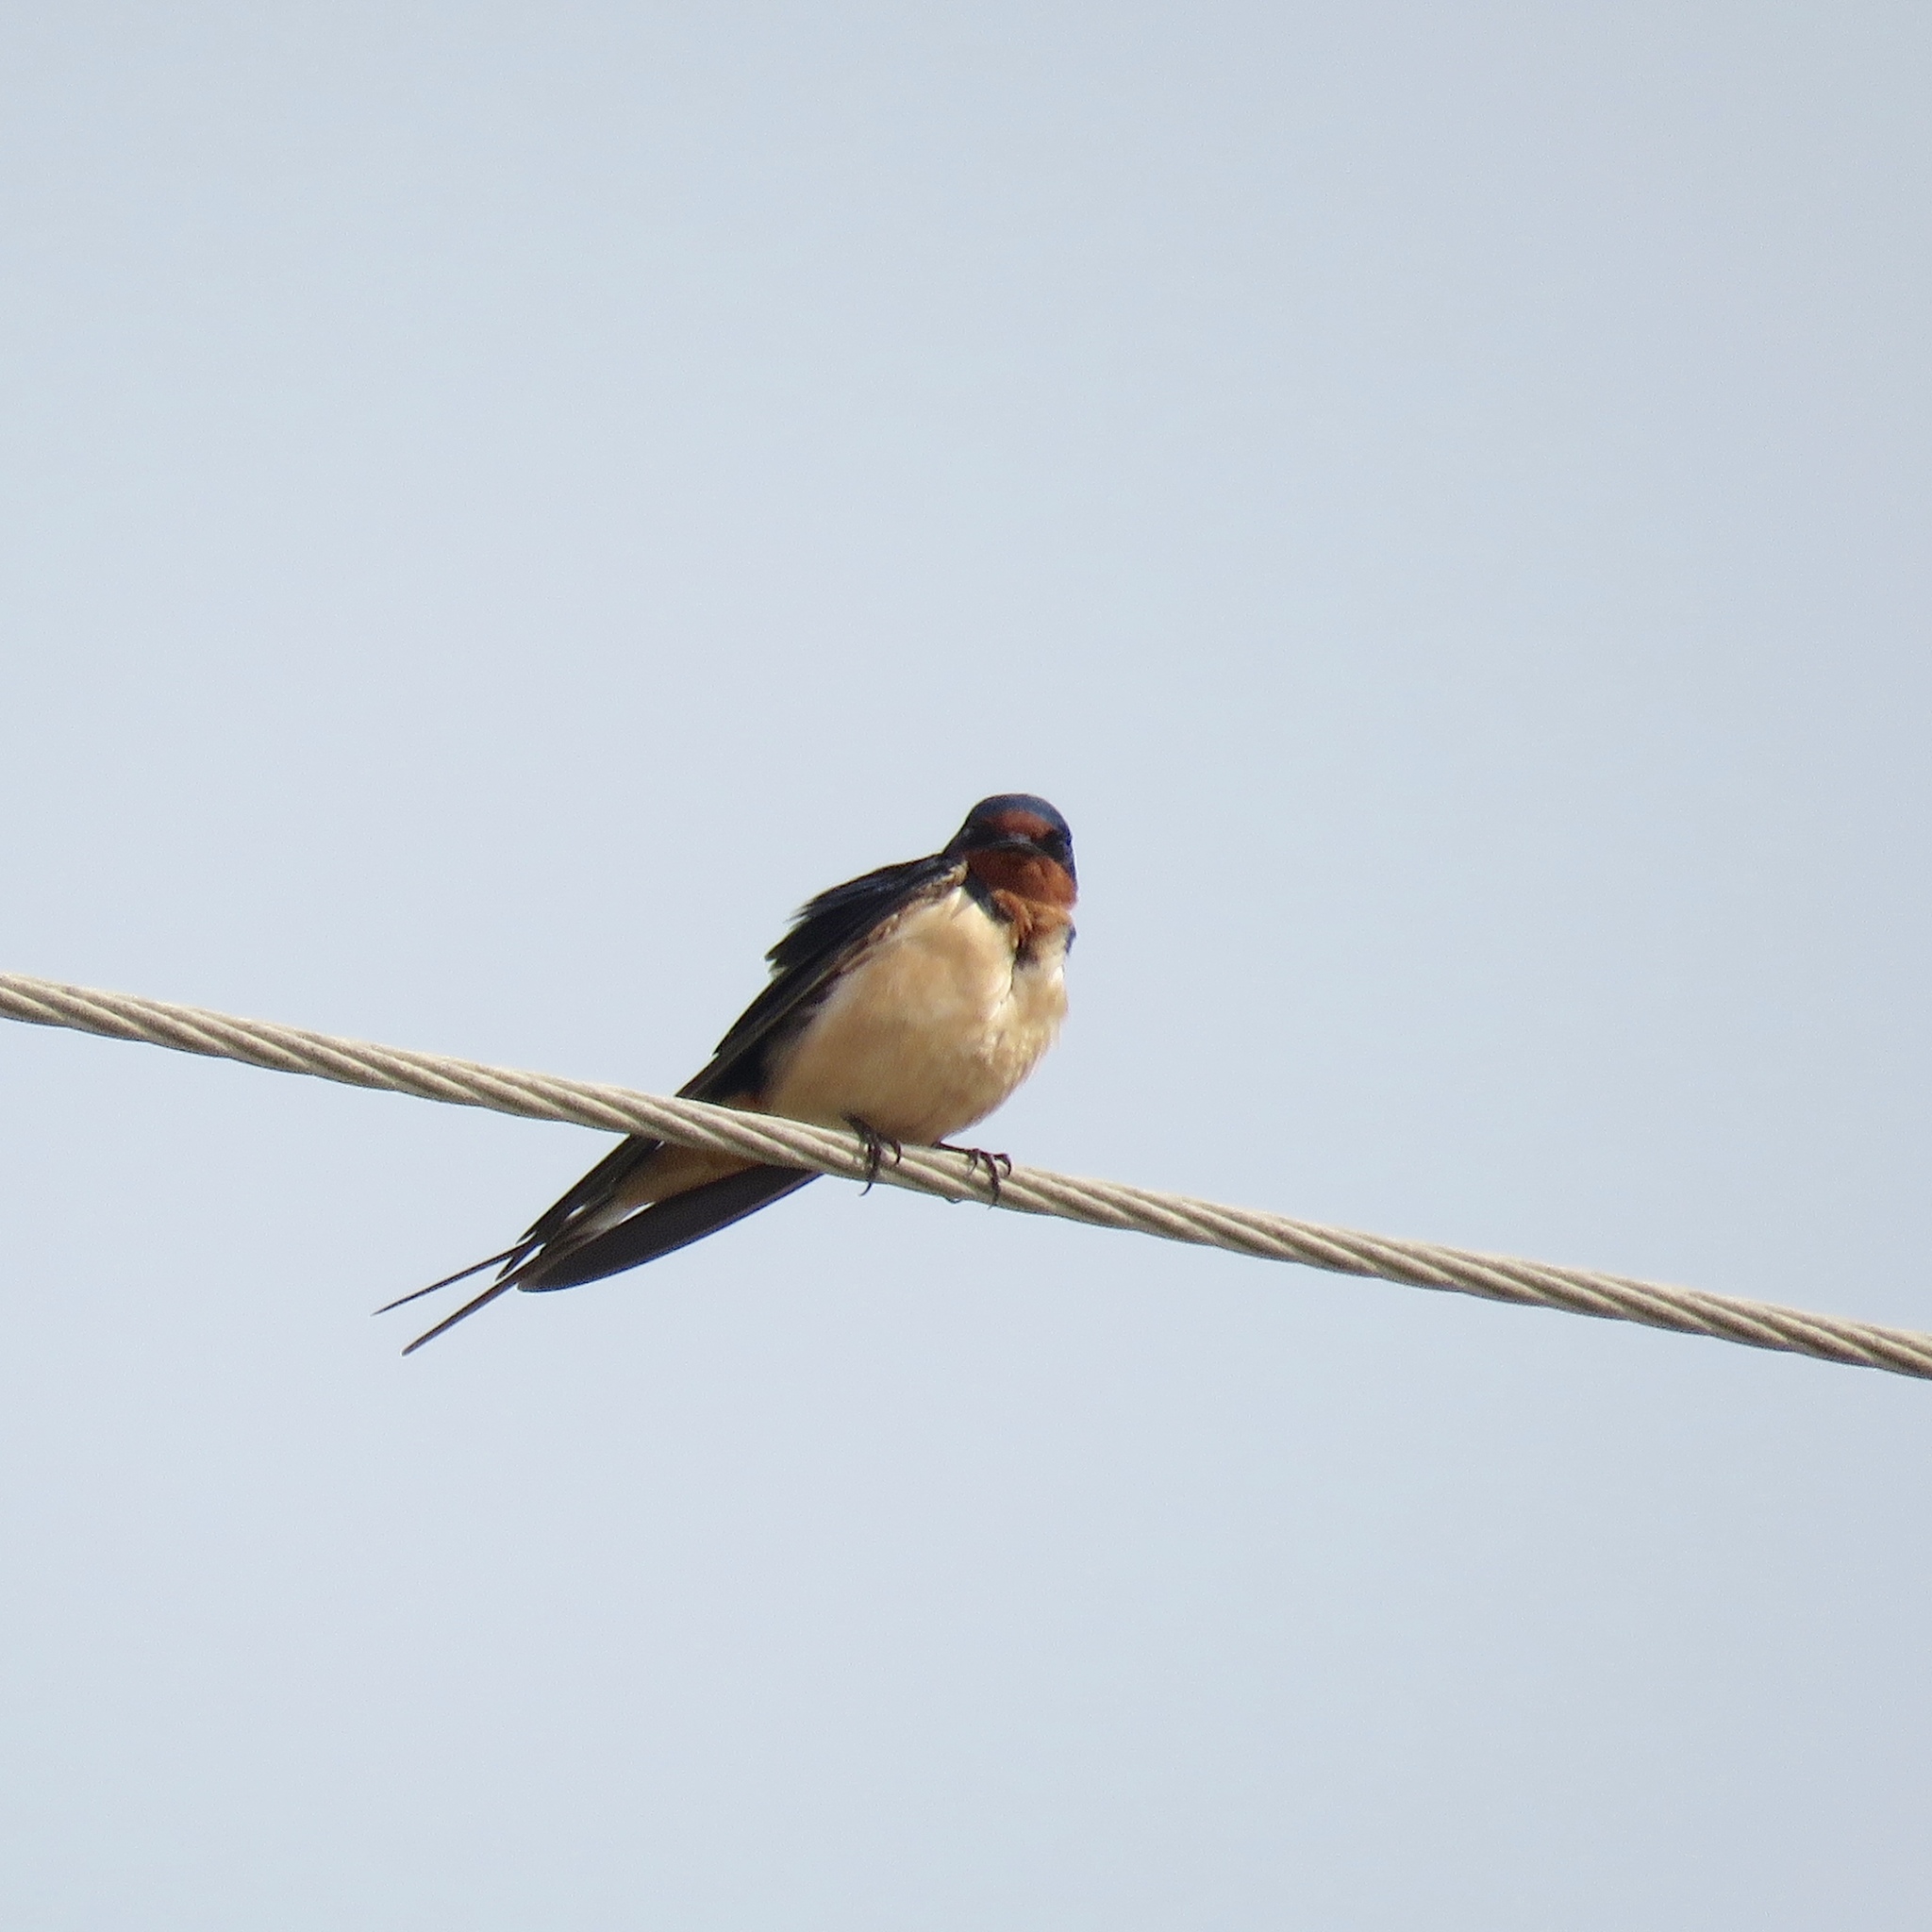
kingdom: Animalia
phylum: Chordata
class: Aves
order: Passeriformes
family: Hirundinidae
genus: Hirundo
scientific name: Hirundo rustica
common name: Barn swallow
